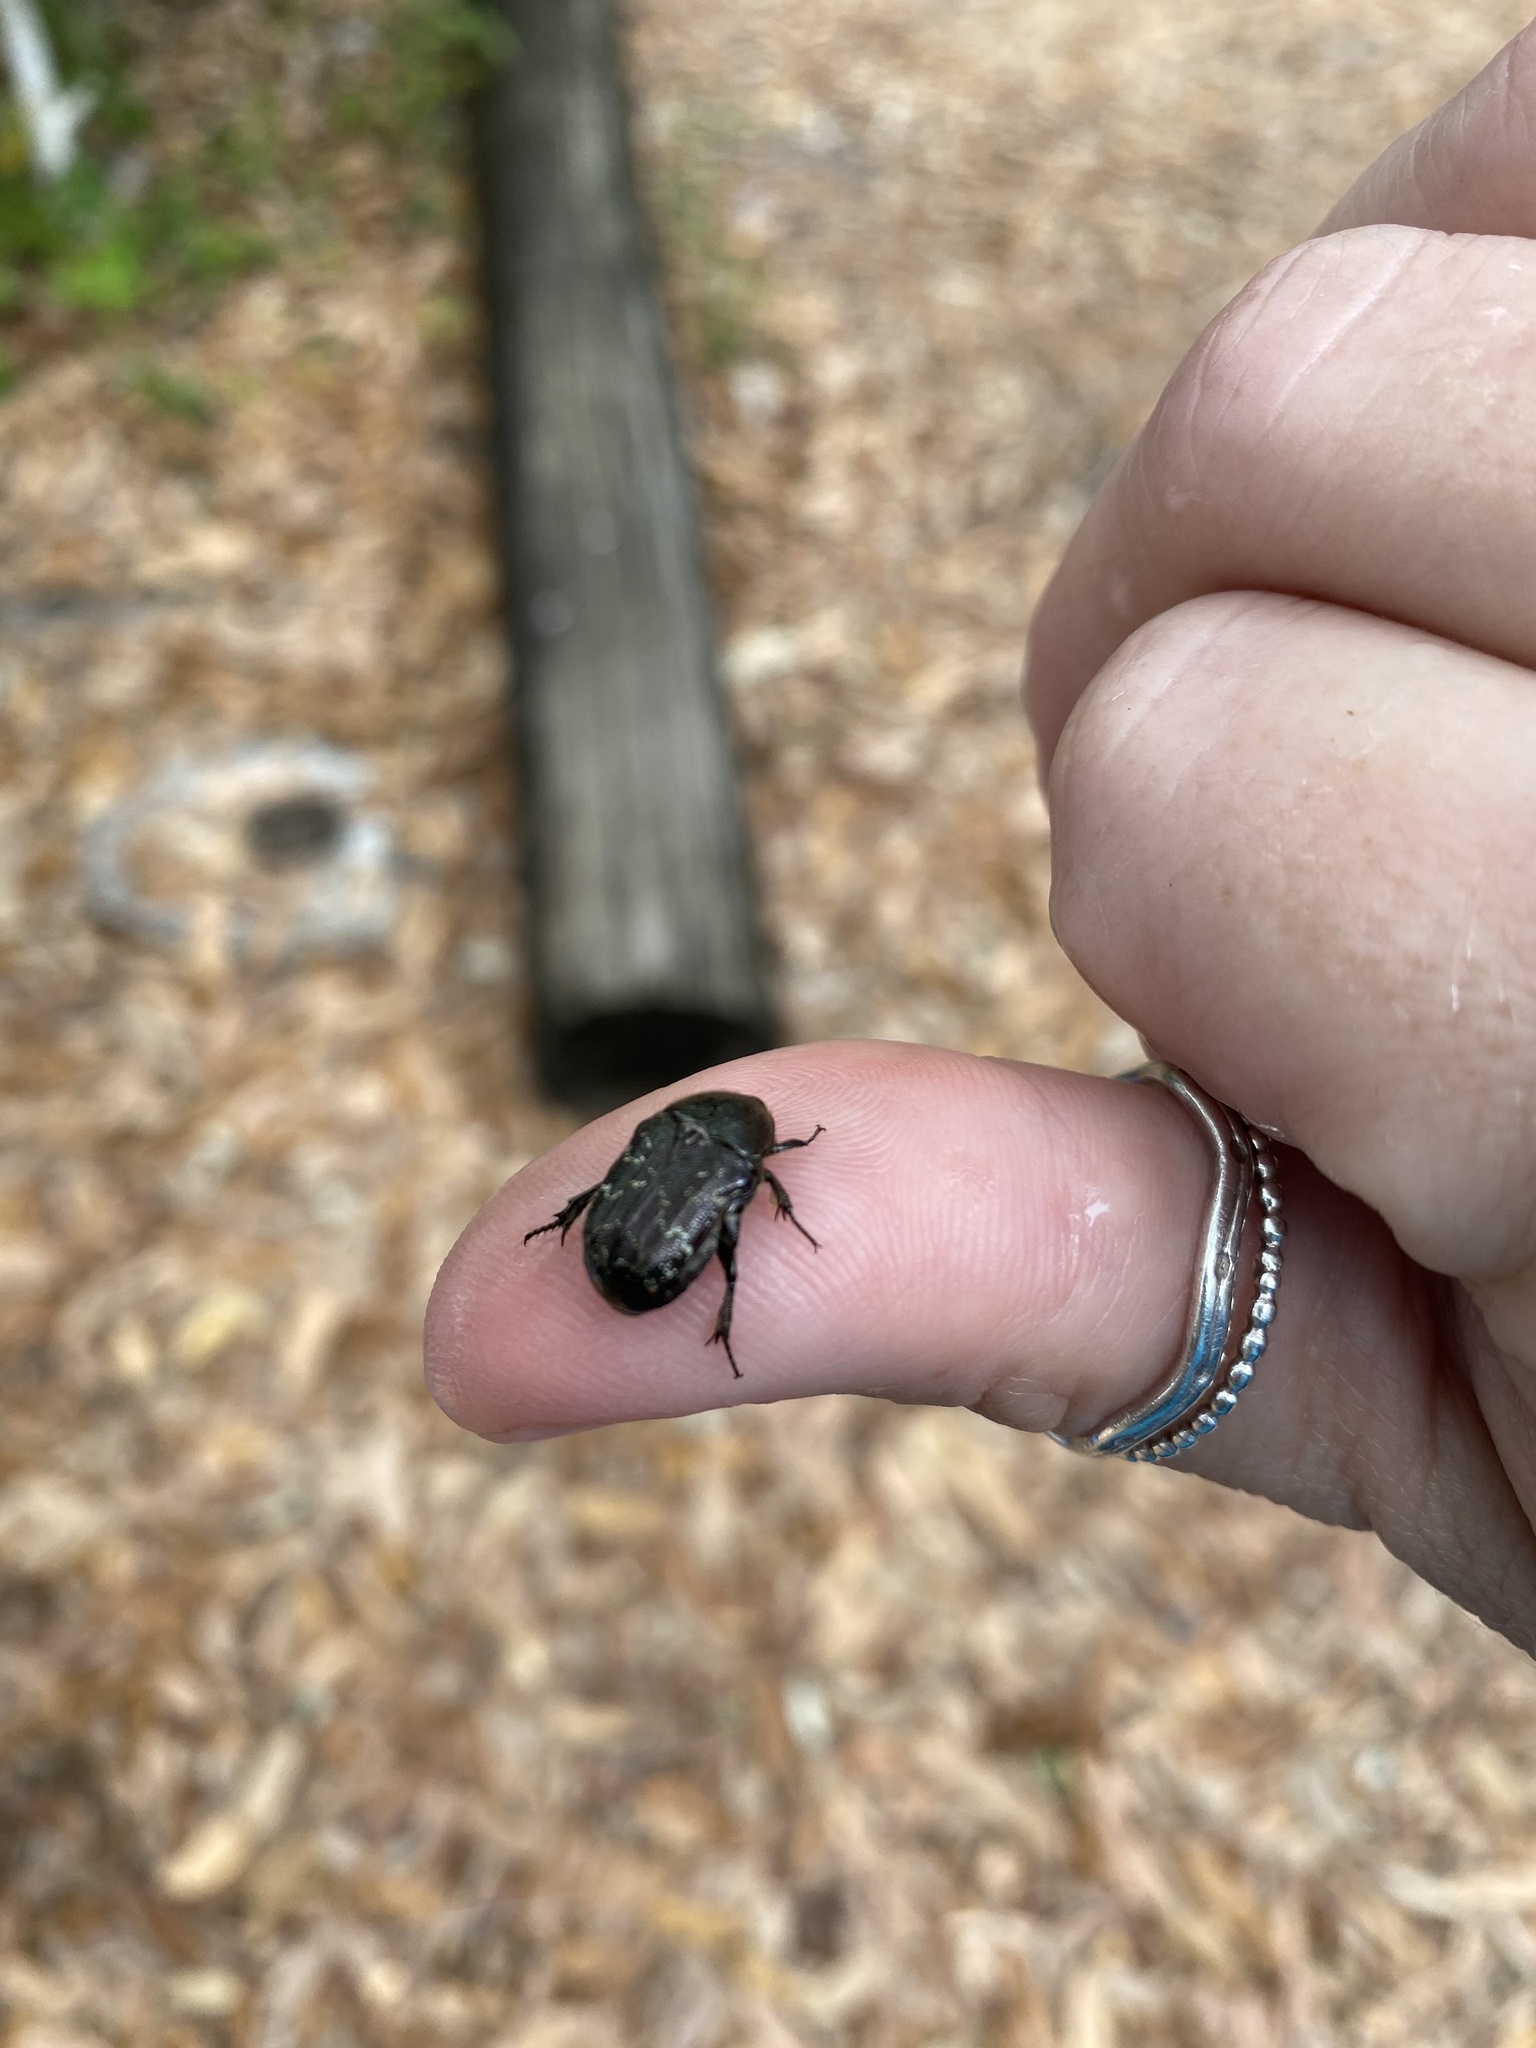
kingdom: Animalia
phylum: Arthropoda
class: Insecta
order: Coleoptera
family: Scarabaeidae
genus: Euphoria
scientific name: Euphoria sepulcralis
